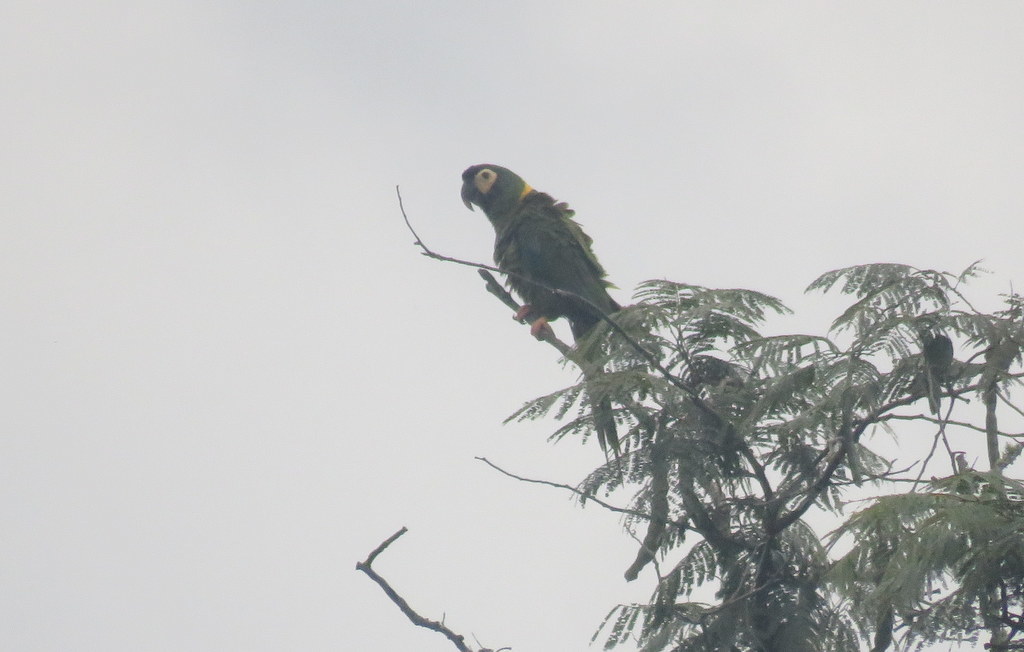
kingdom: Animalia
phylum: Chordata
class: Aves
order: Psittaciformes
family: Psittacidae
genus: Primolius
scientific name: Primolius auricollis
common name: Golden-collared macaw
